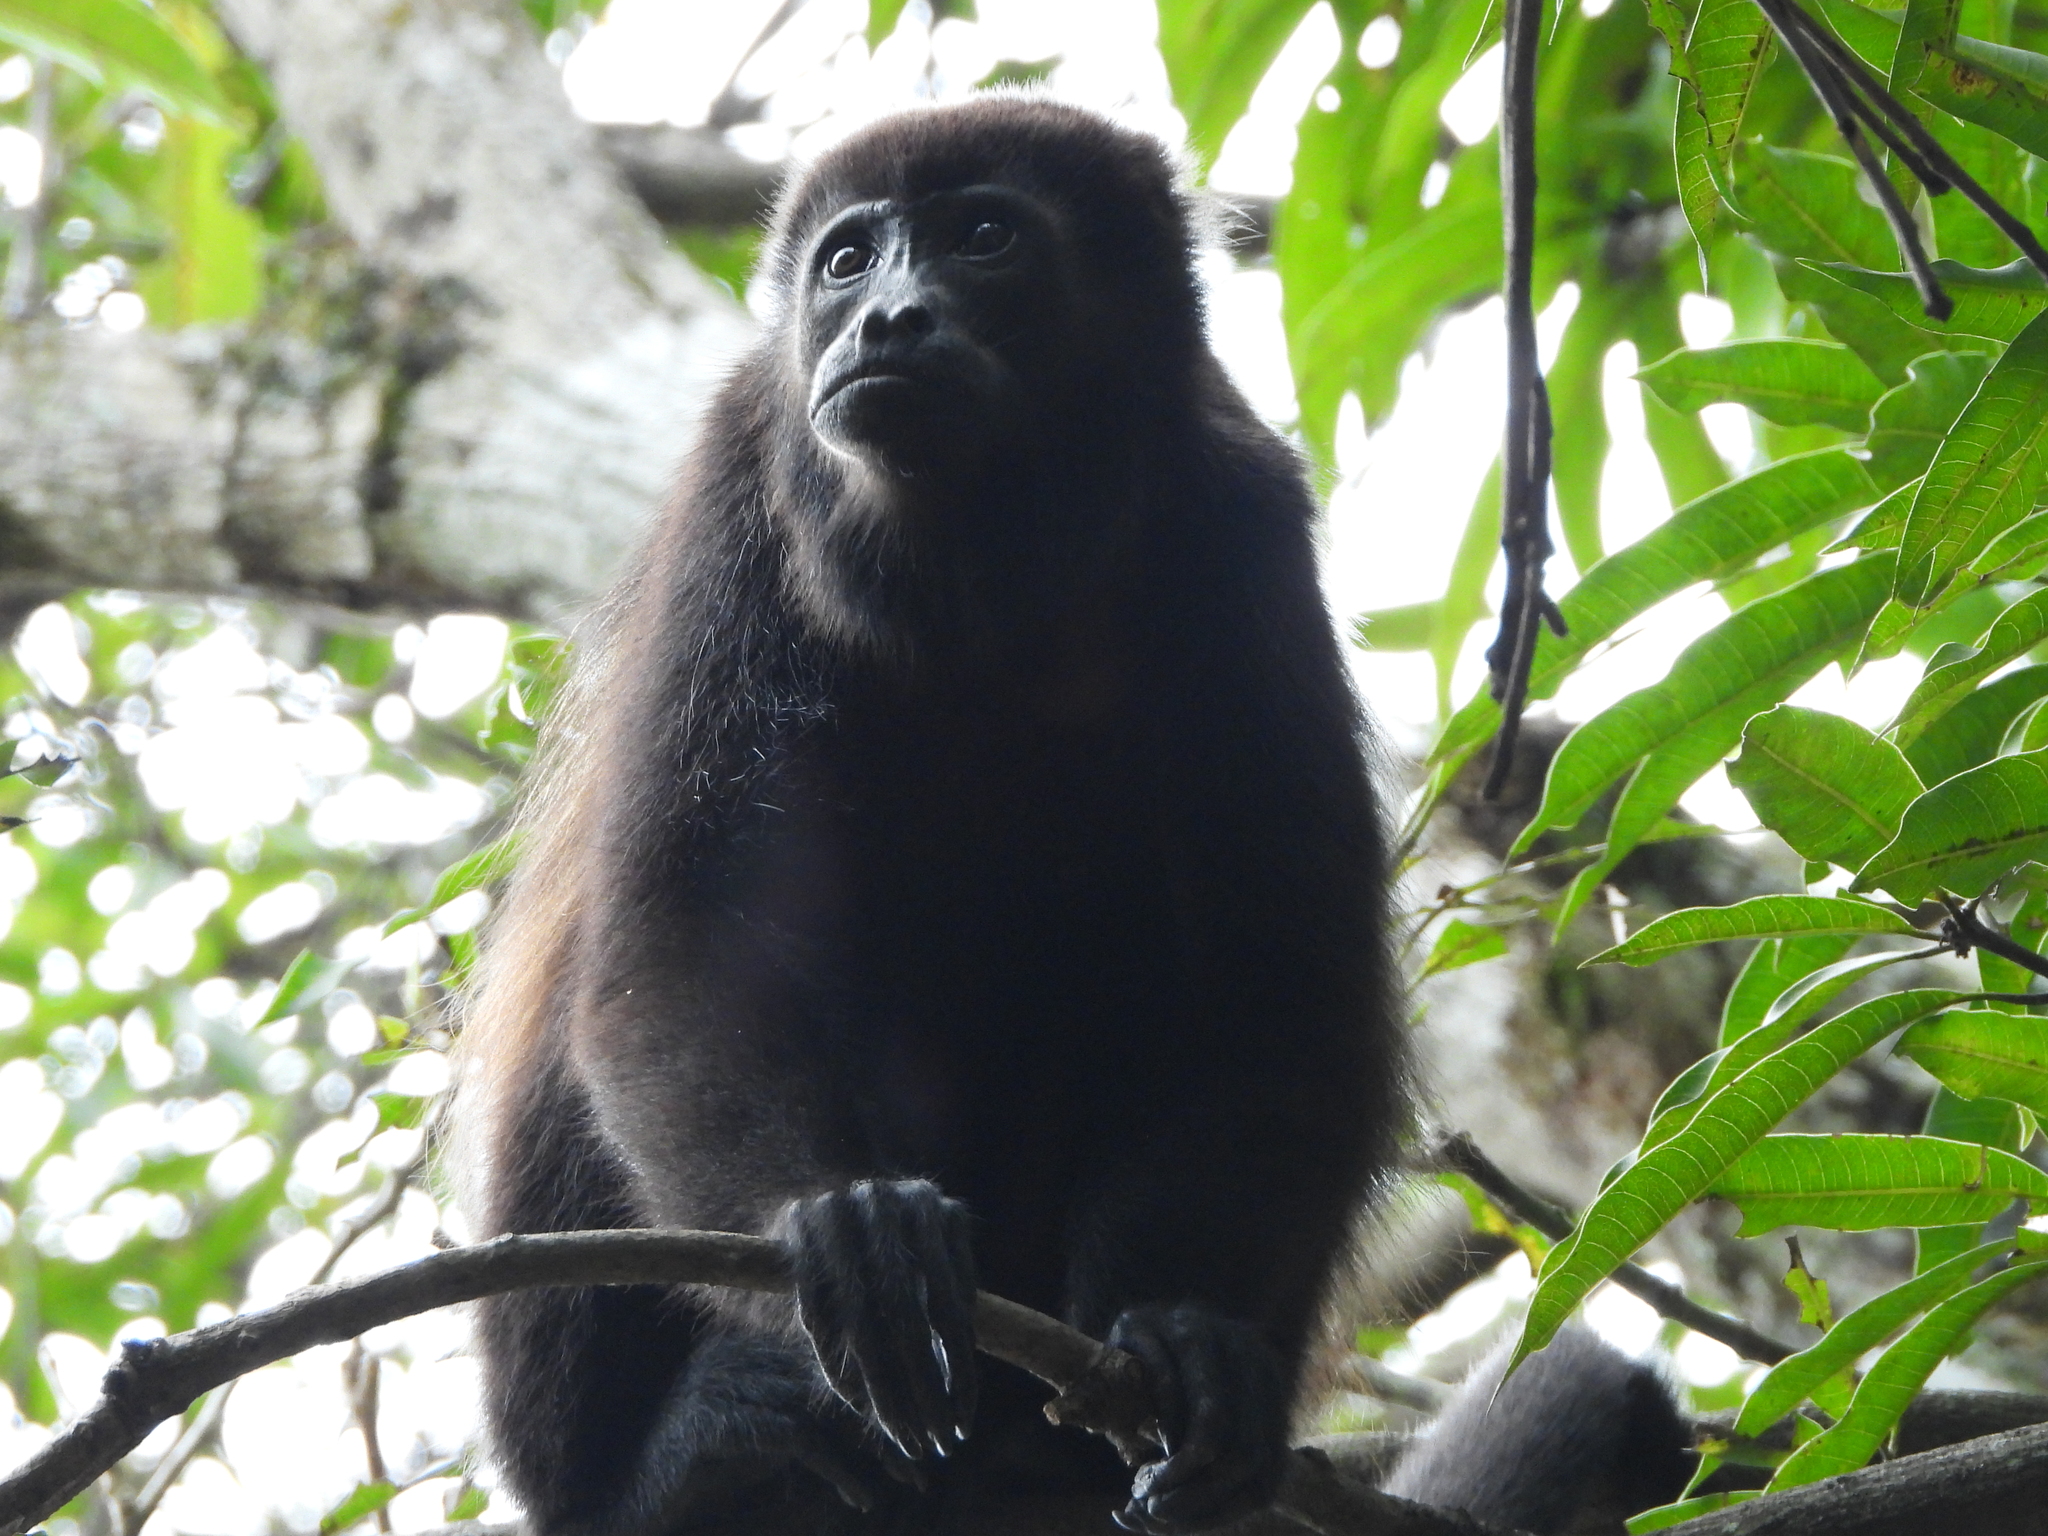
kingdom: Animalia
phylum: Chordata
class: Mammalia
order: Primates
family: Atelidae
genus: Alouatta
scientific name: Alouatta palliata
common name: Mantled howler
